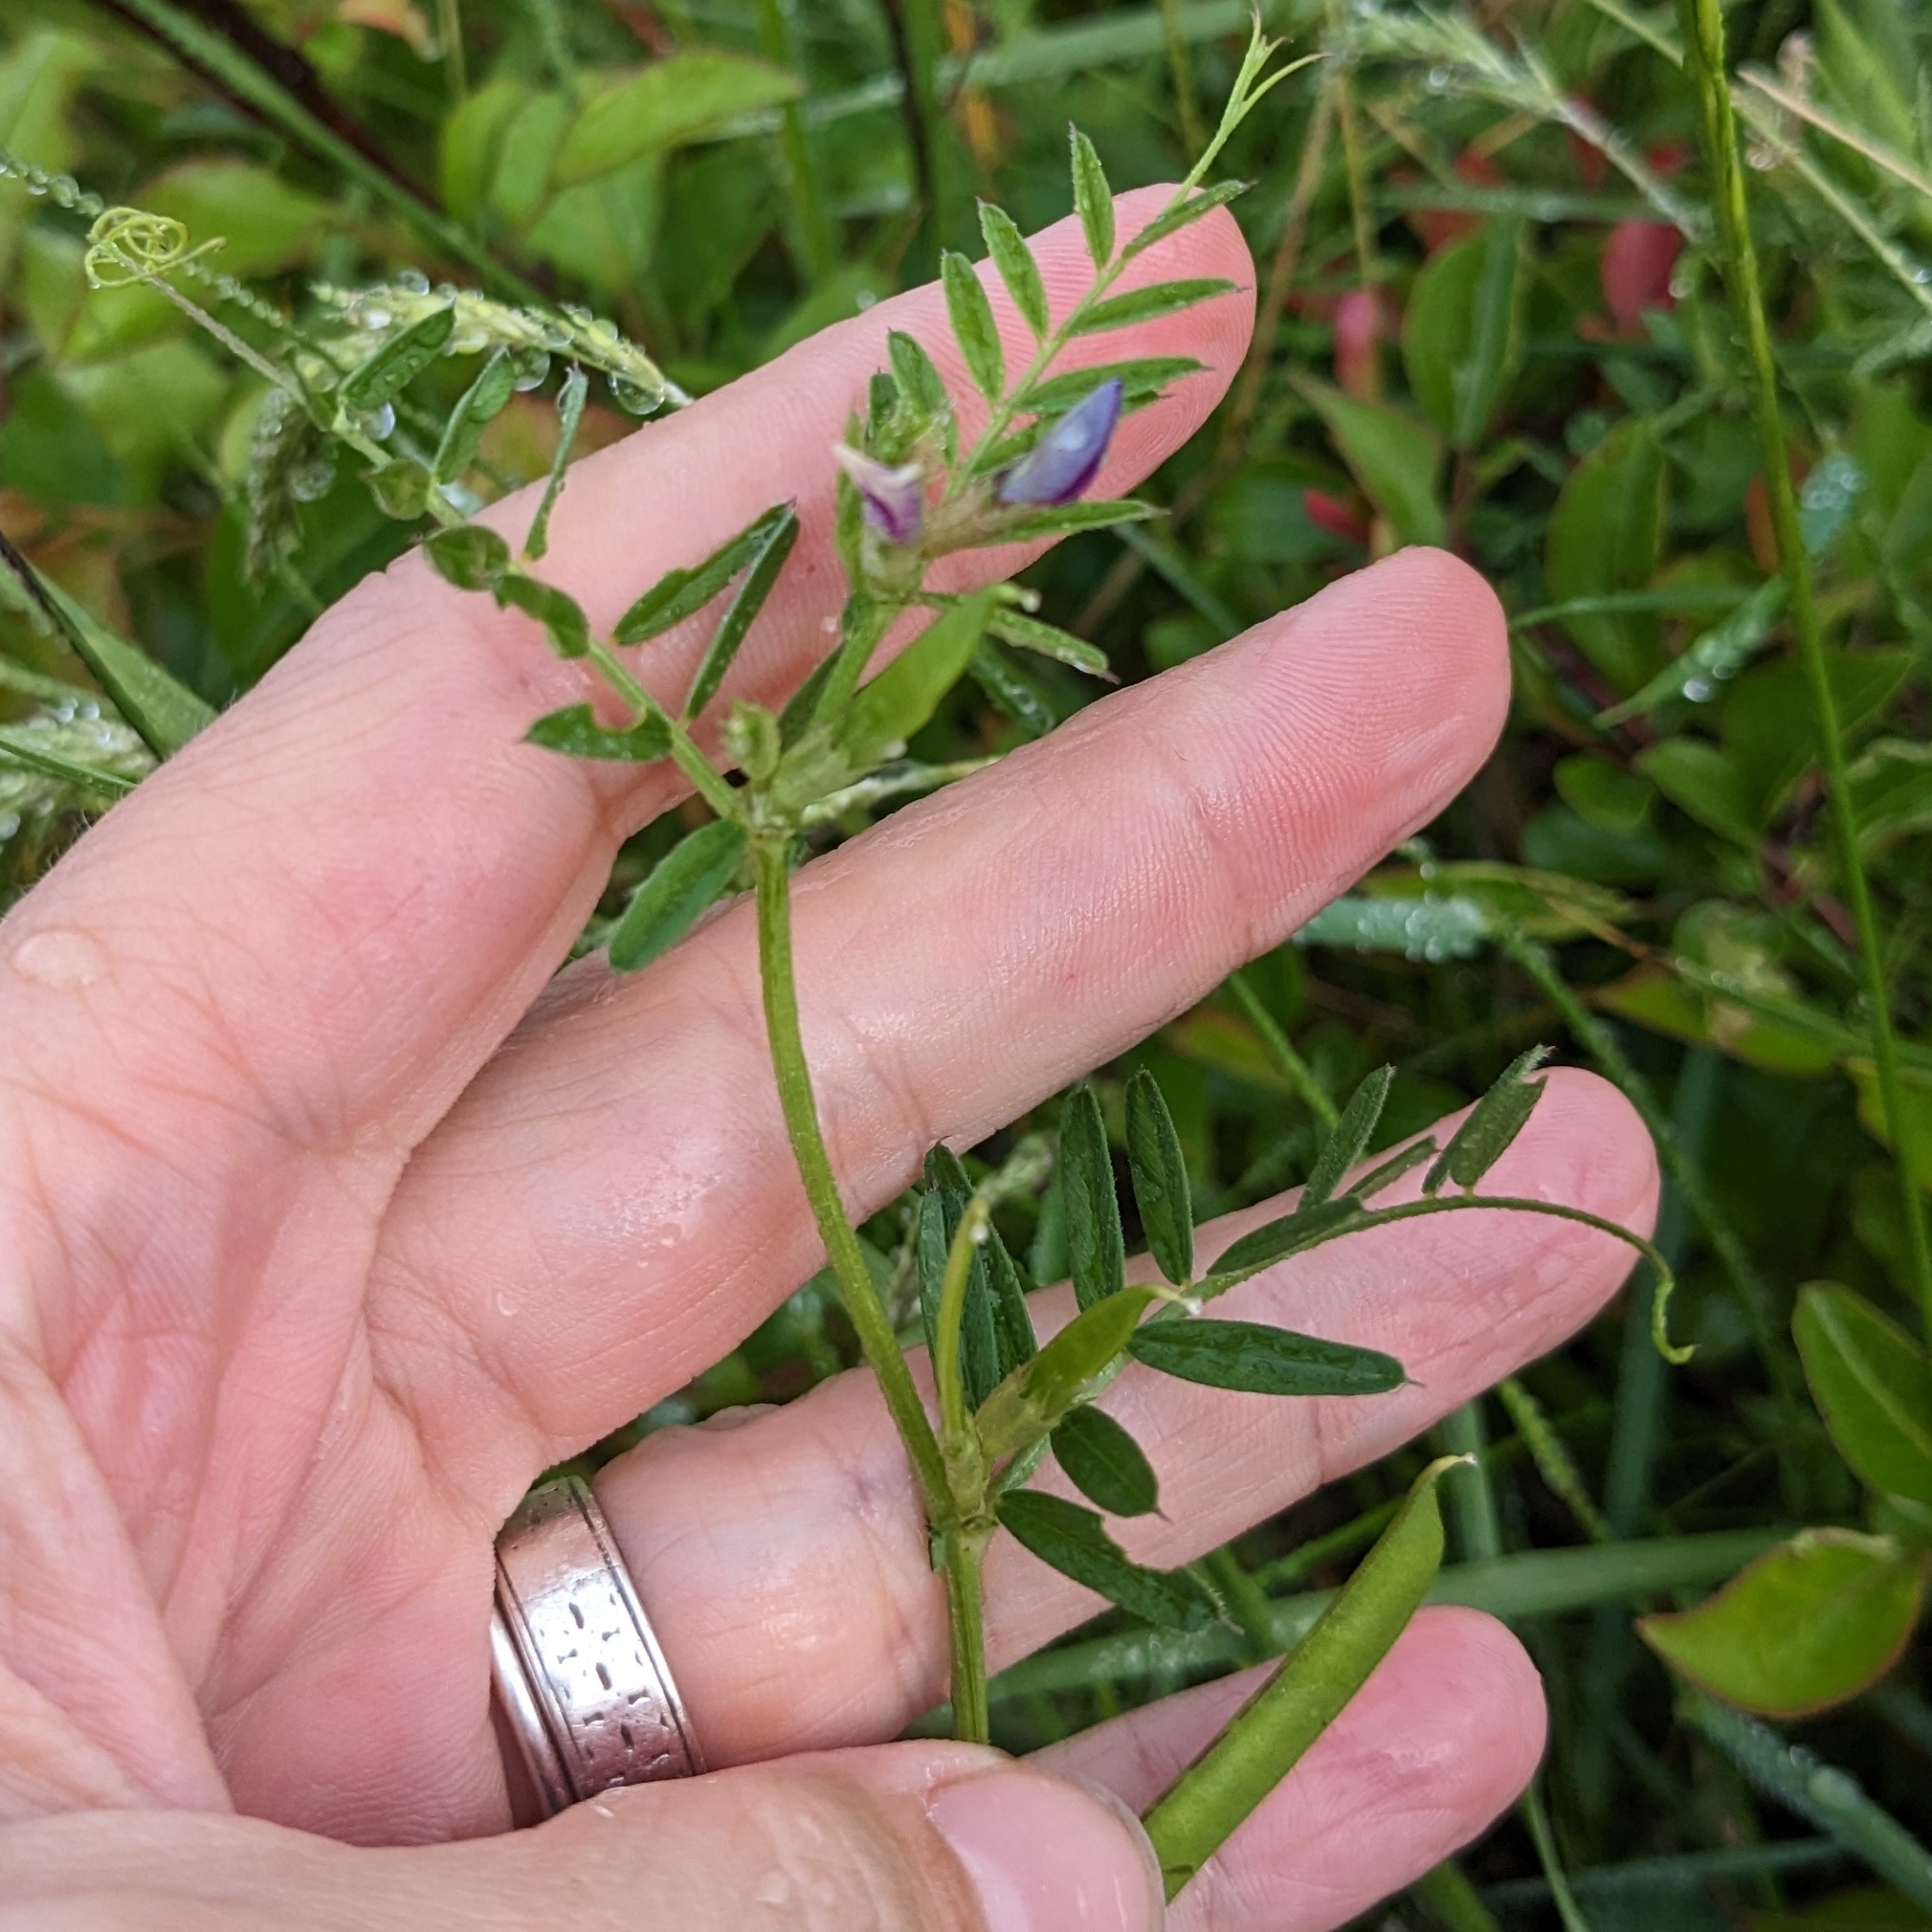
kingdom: Plantae
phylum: Tracheophyta
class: Magnoliopsida
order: Fabales
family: Fabaceae
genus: Vicia
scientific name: Vicia sativa
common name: Garden vetch
